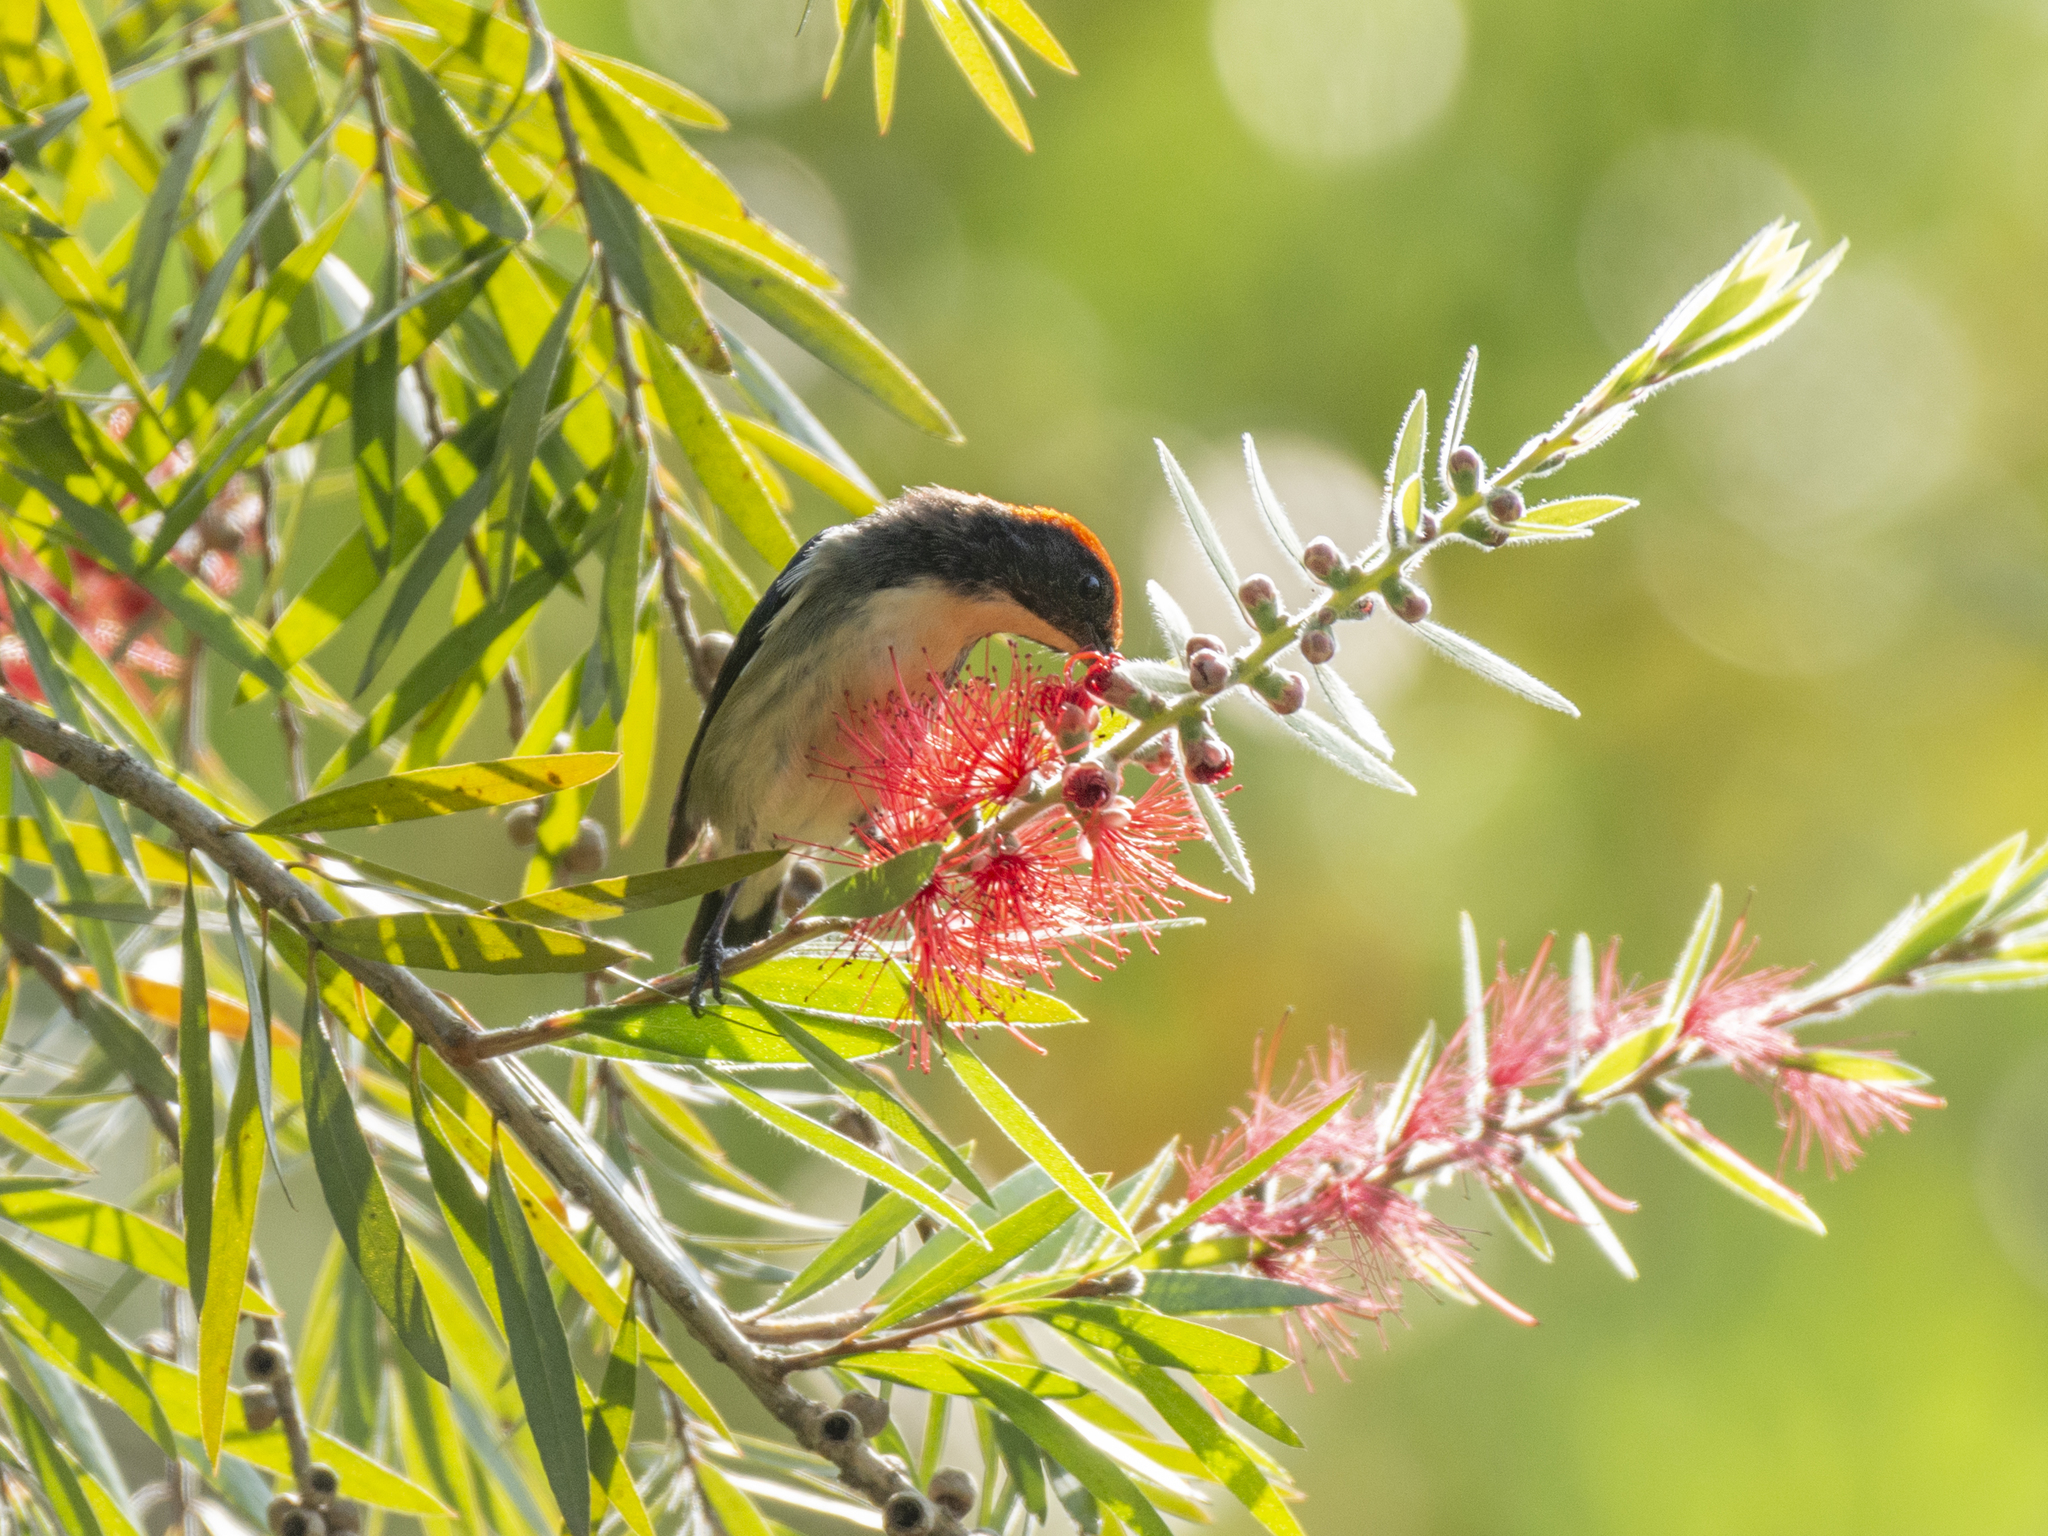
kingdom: Animalia
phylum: Chordata
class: Aves
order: Passeriformes
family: Dicaeidae
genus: Dicaeum
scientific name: Dicaeum cruentatum
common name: Scarlet-backed flowerpecker
